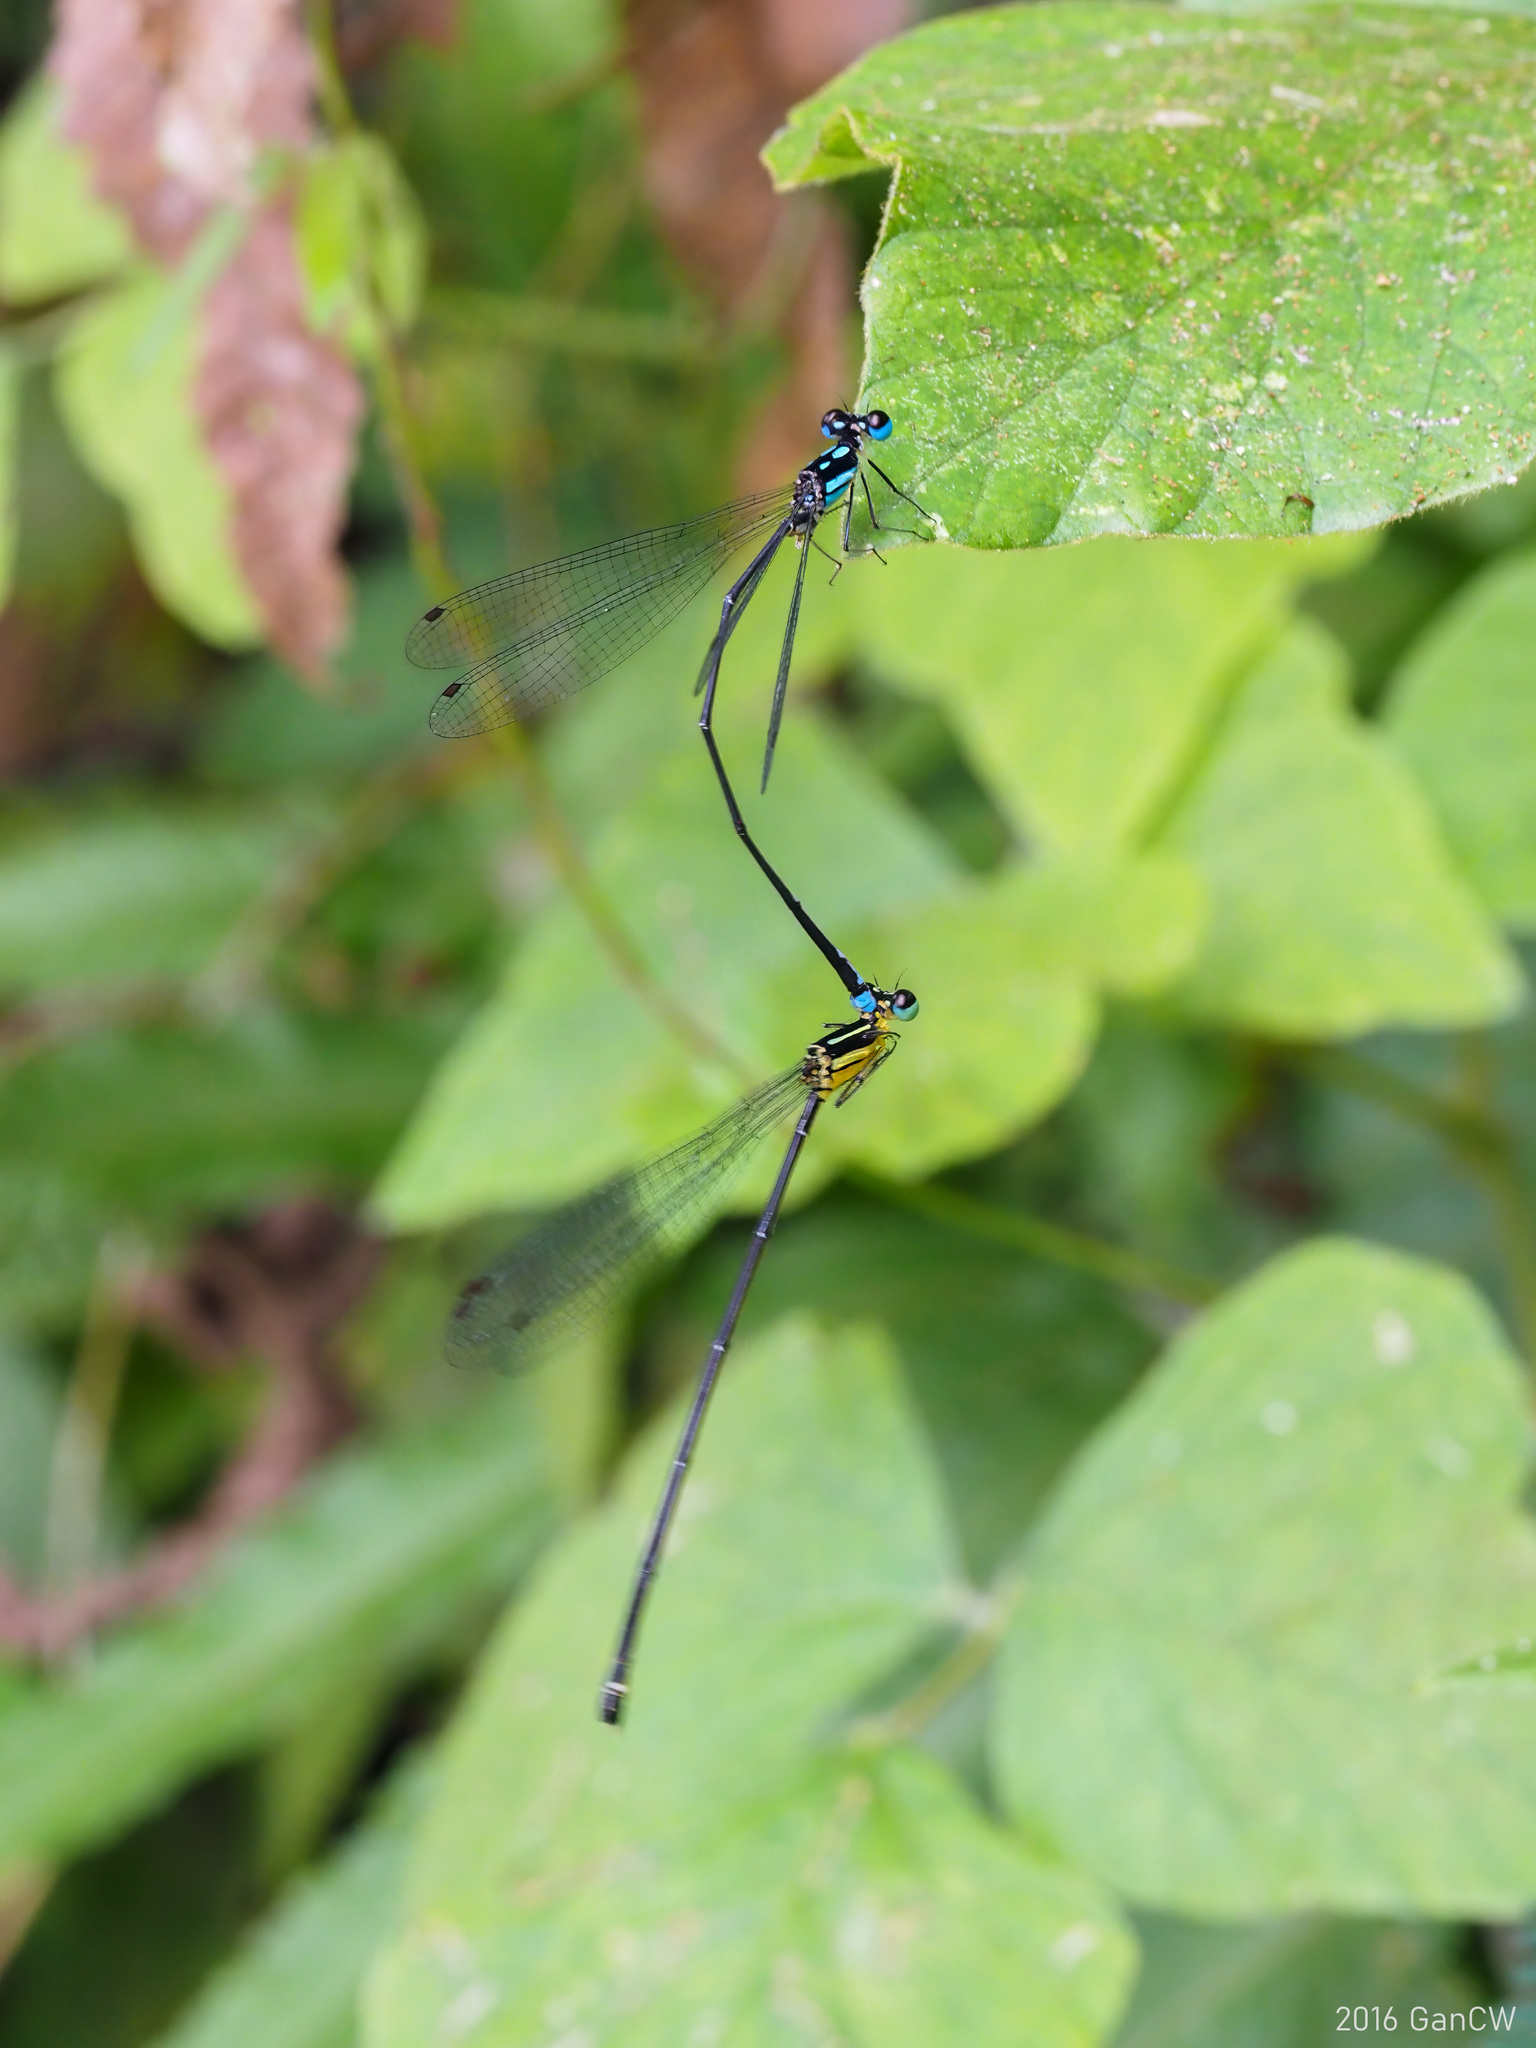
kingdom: Animalia
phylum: Arthropoda
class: Insecta
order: Odonata
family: Platycnemididae
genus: Coeliccia
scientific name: Coeliccia didyma
